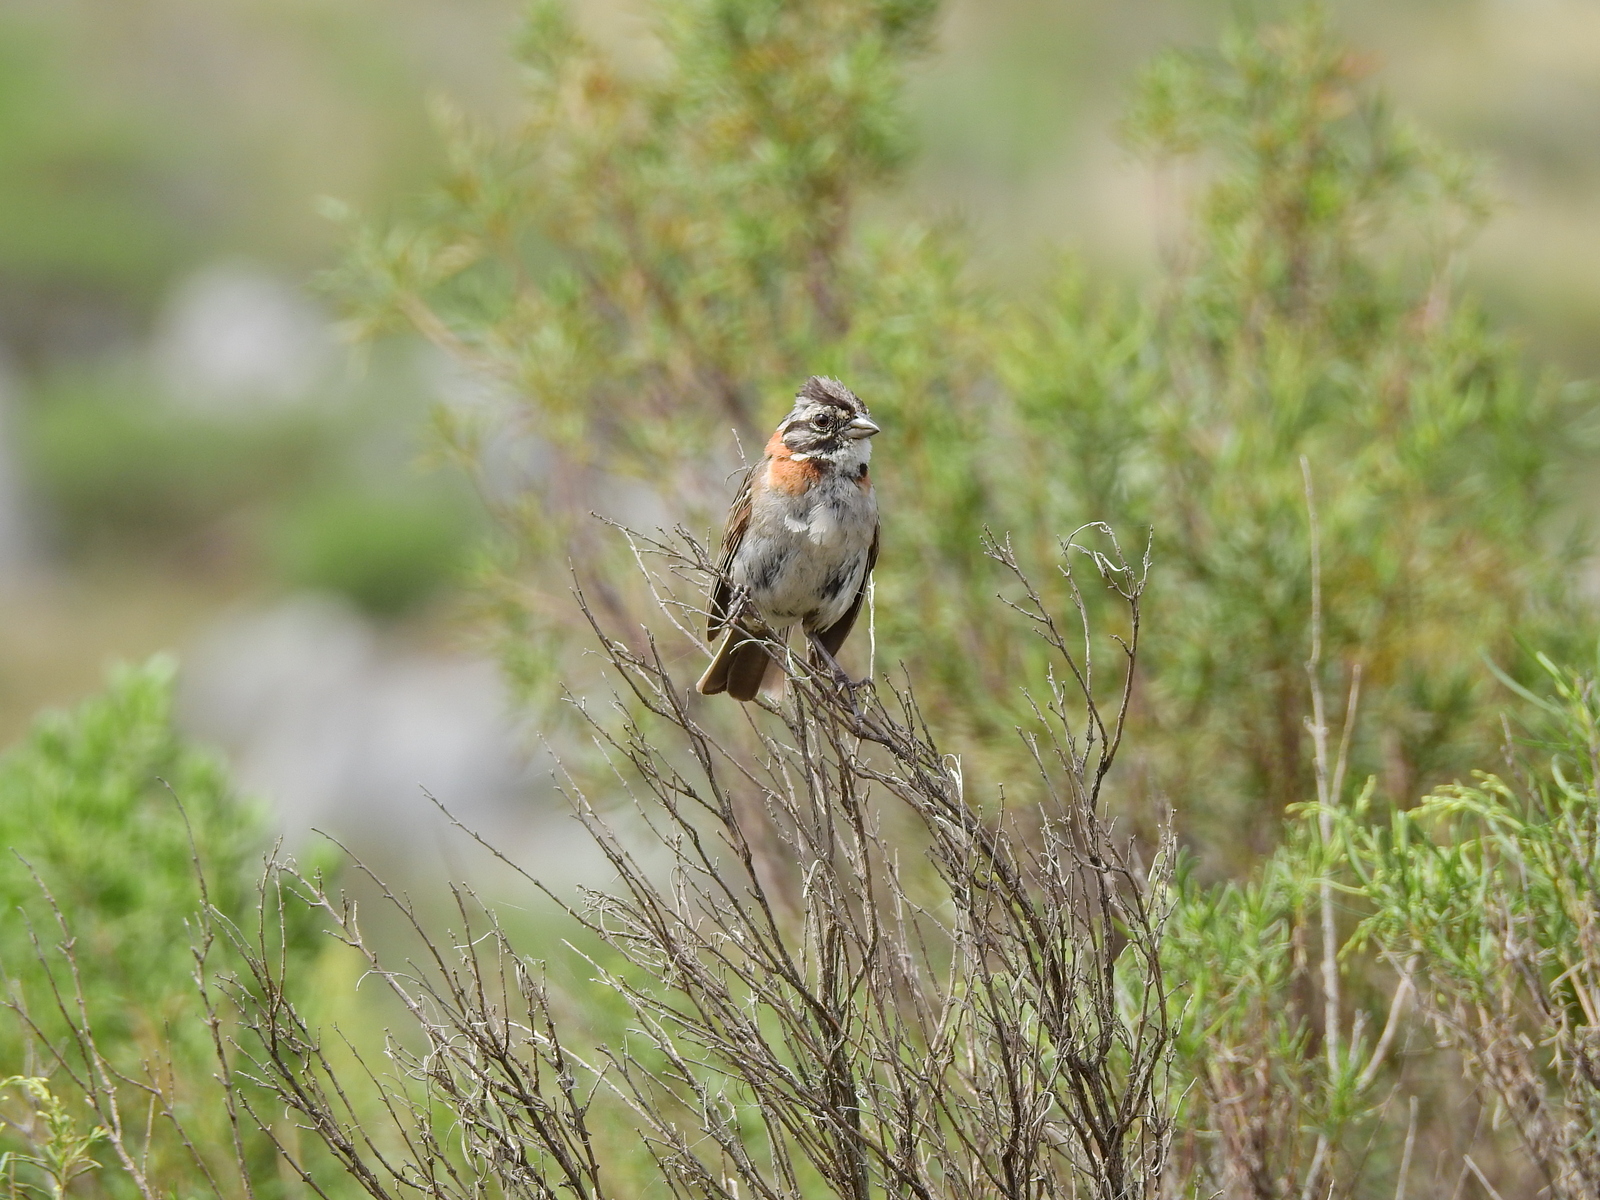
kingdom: Animalia
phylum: Chordata
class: Aves
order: Passeriformes
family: Passerellidae
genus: Zonotrichia
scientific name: Zonotrichia capensis
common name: Rufous-collared sparrow
